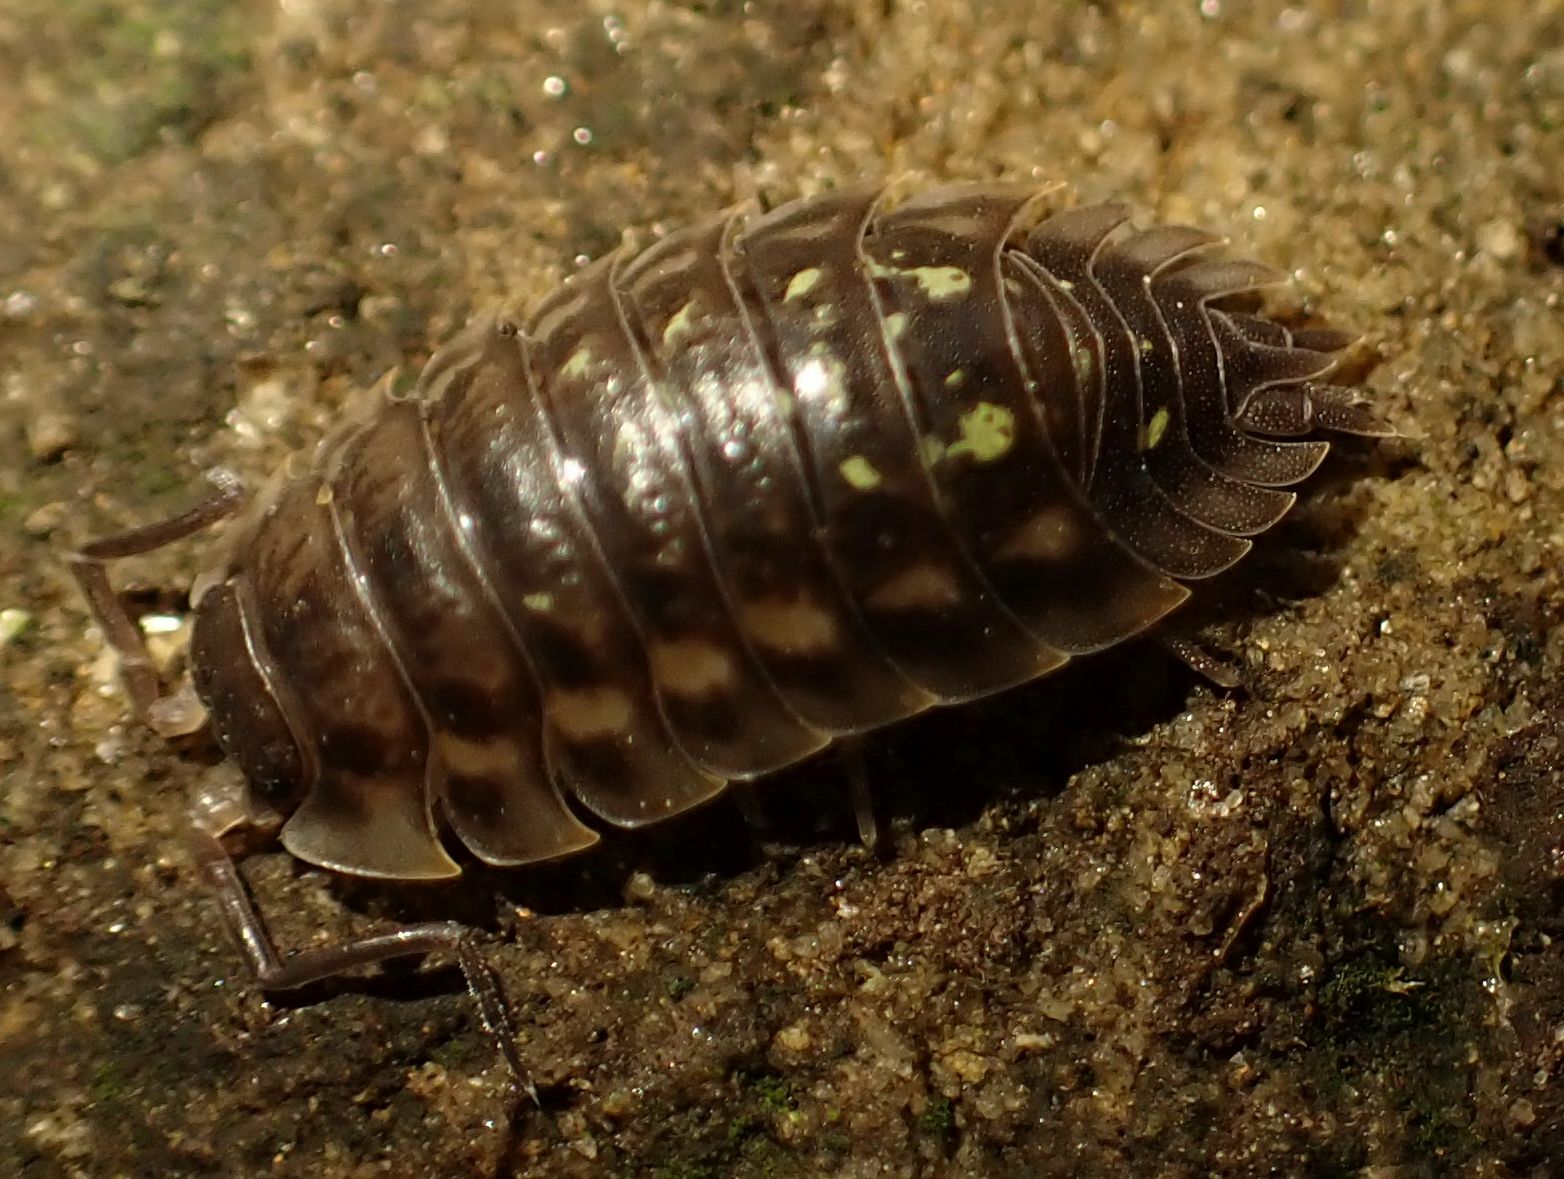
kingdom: Animalia
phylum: Arthropoda
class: Malacostraca
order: Isopoda
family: Oniscidae
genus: Oniscus
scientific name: Oniscus asellus
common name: Common shiny woodlouse
